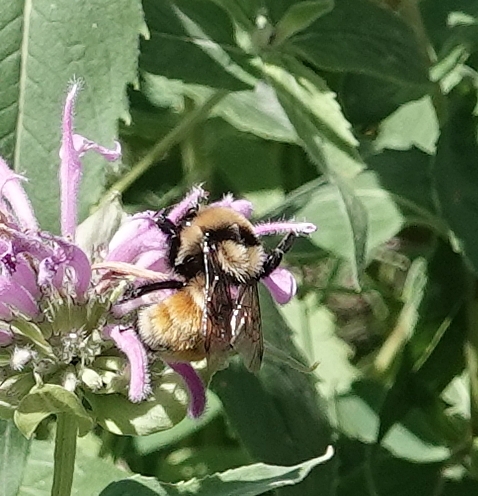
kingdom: Animalia
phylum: Arthropoda
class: Insecta
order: Hymenoptera
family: Apidae
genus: Bombus
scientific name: Bombus huntii
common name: Hunt bumble bee
